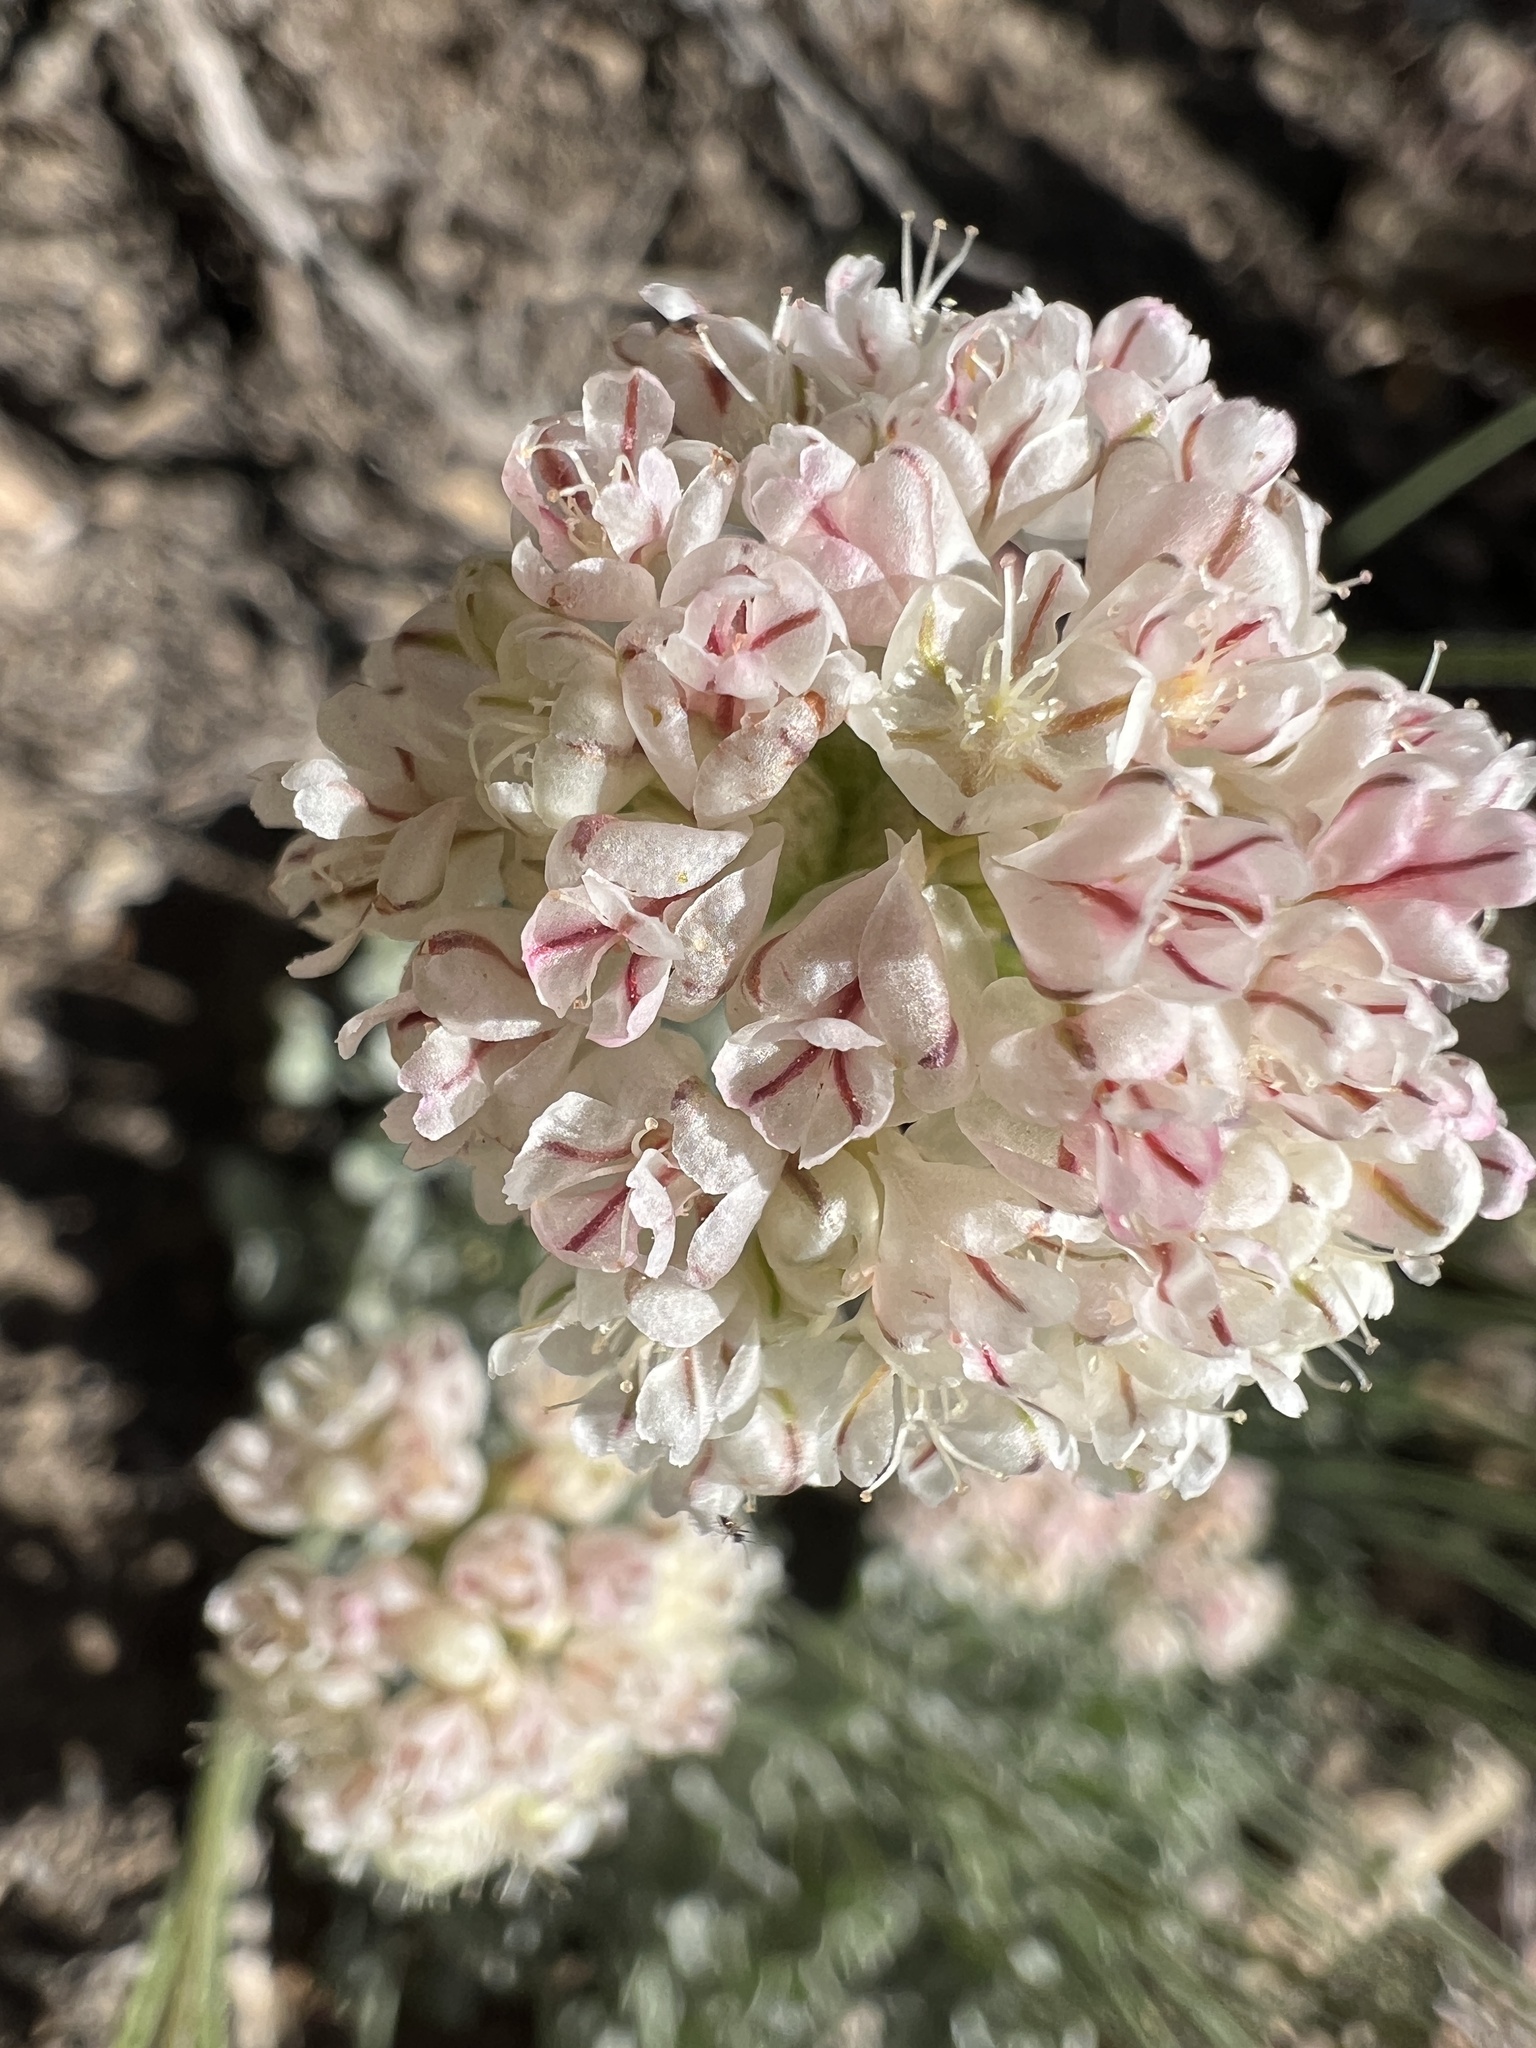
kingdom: Plantae
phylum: Tracheophyta
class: Magnoliopsida
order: Caryophyllales
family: Polygonaceae
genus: Eriogonum
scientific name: Eriogonum ovalifolium
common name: Cushion buckwheat
